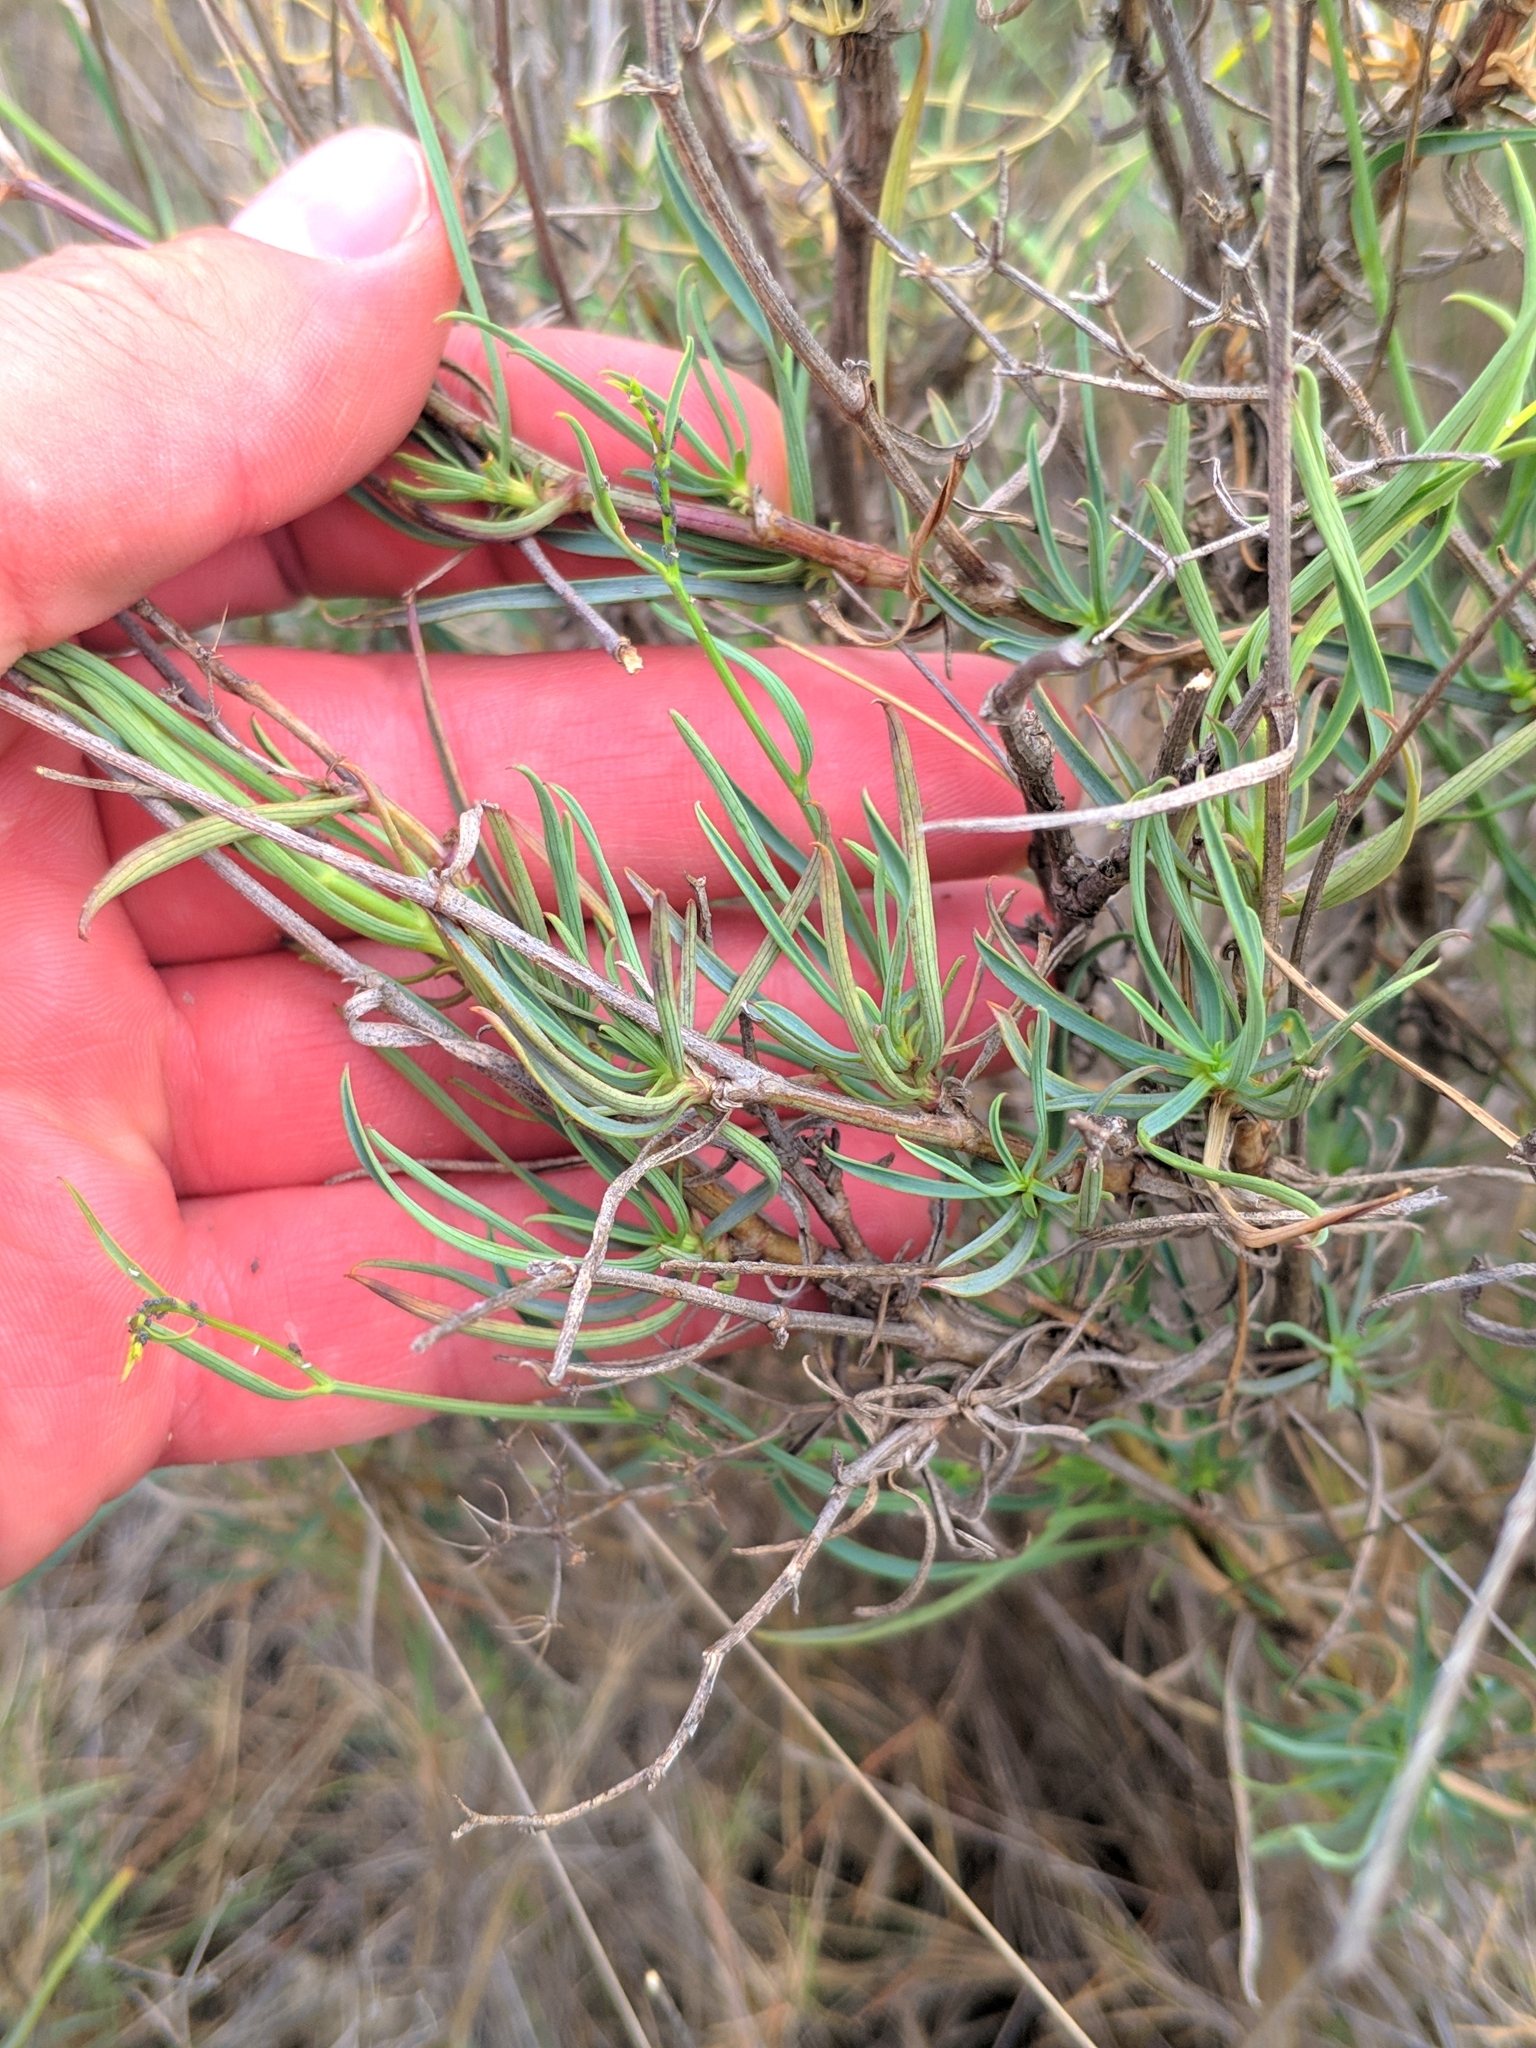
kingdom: Plantae
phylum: Tracheophyta
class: Magnoliopsida
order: Apiales
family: Apiaceae
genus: Bupleurum
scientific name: Bupleurum fruticescens
